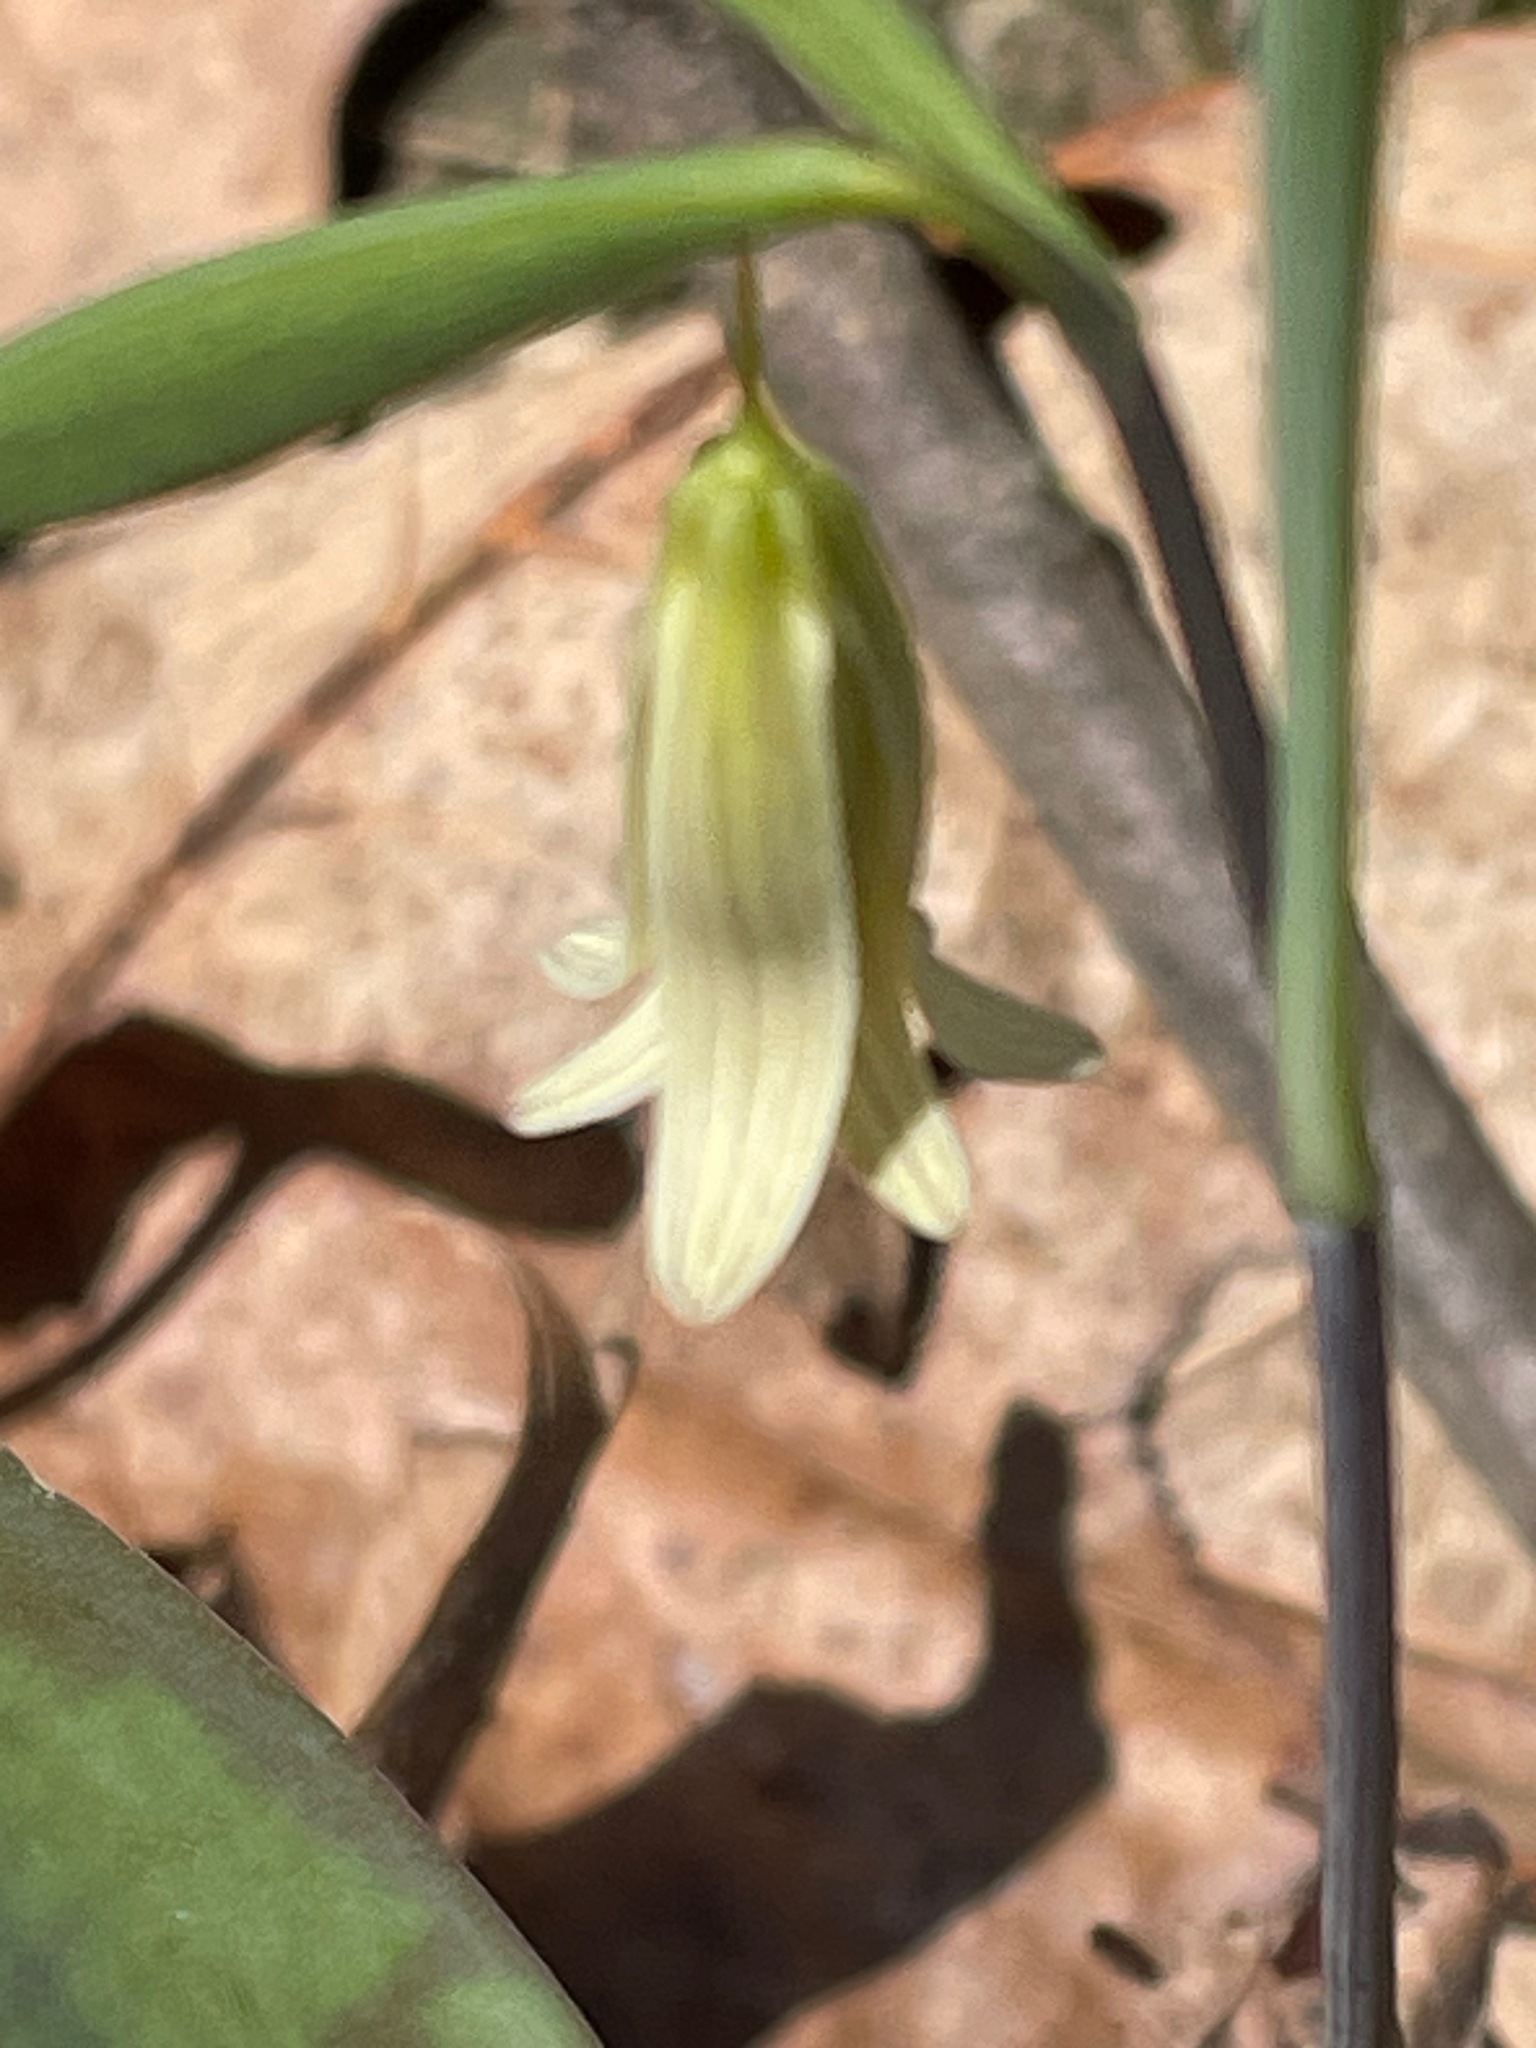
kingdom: Plantae
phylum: Tracheophyta
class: Liliopsida
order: Liliales
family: Colchicaceae
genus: Uvularia
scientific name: Uvularia sessilifolia
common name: Straw-lily
